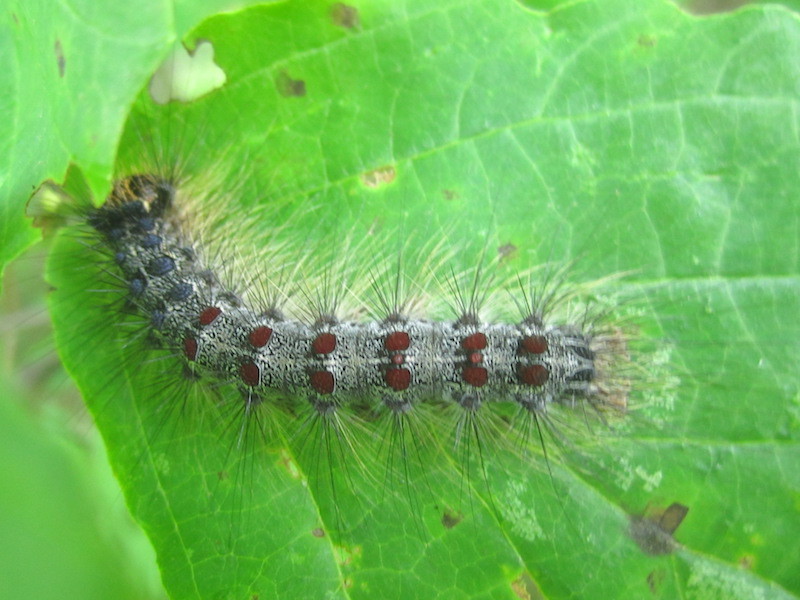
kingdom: Animalia
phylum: Arthropoda
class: Insecta
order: Lepidoptera
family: Erebidae
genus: Lymantria
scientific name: Lymantria dispar
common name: Gypsy moth
